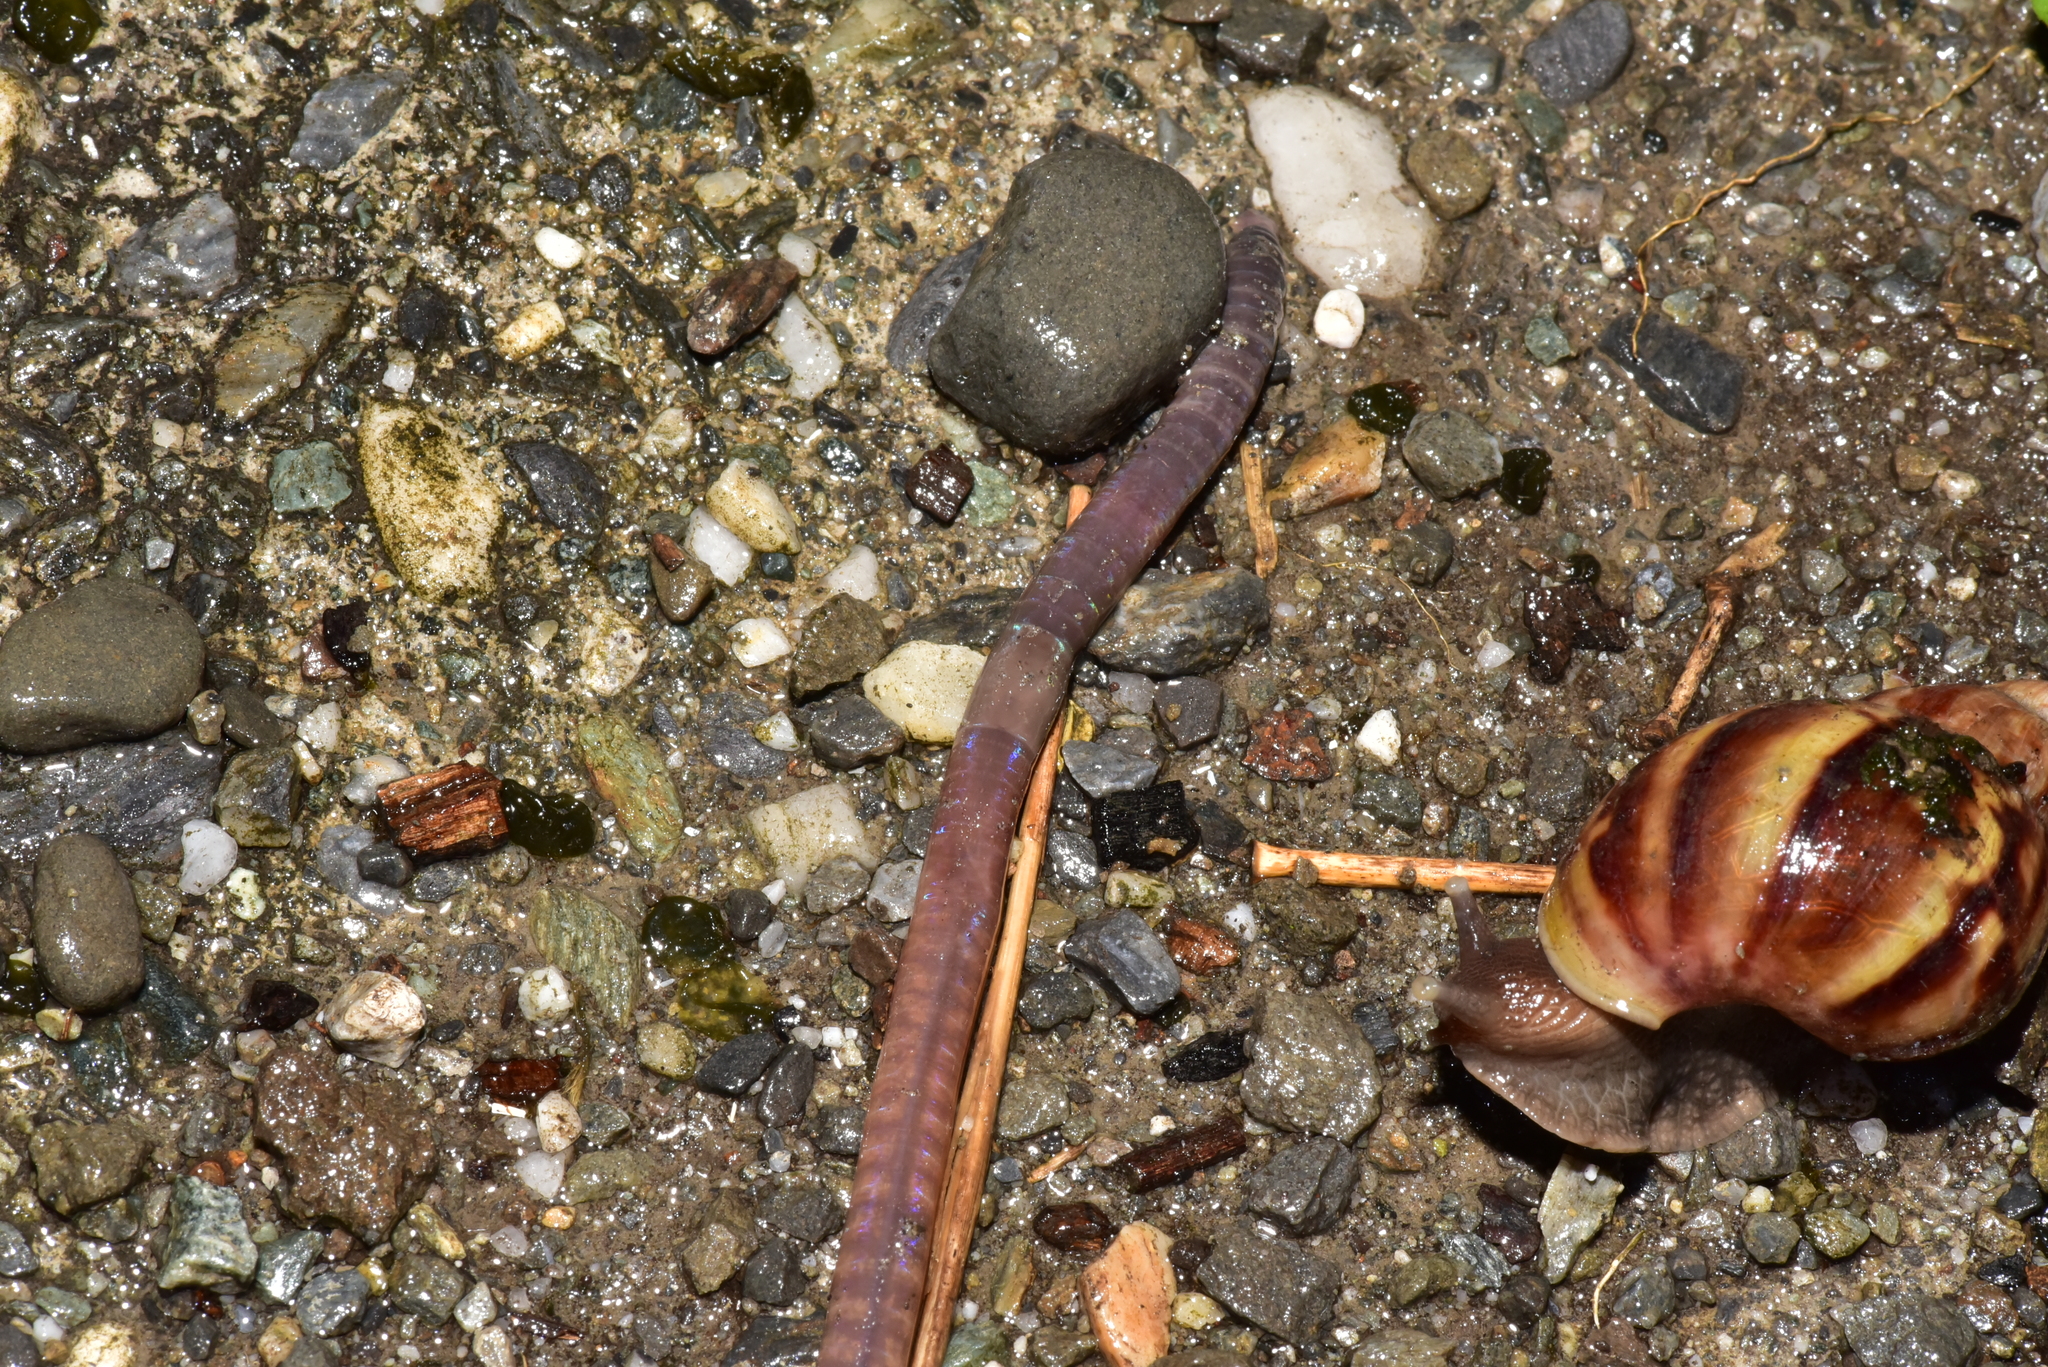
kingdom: Animalia
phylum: Annelida
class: Clitellata
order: Crassiclitellata
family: Megascolecidae
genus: Amynthas
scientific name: Amynthas aspergillus
